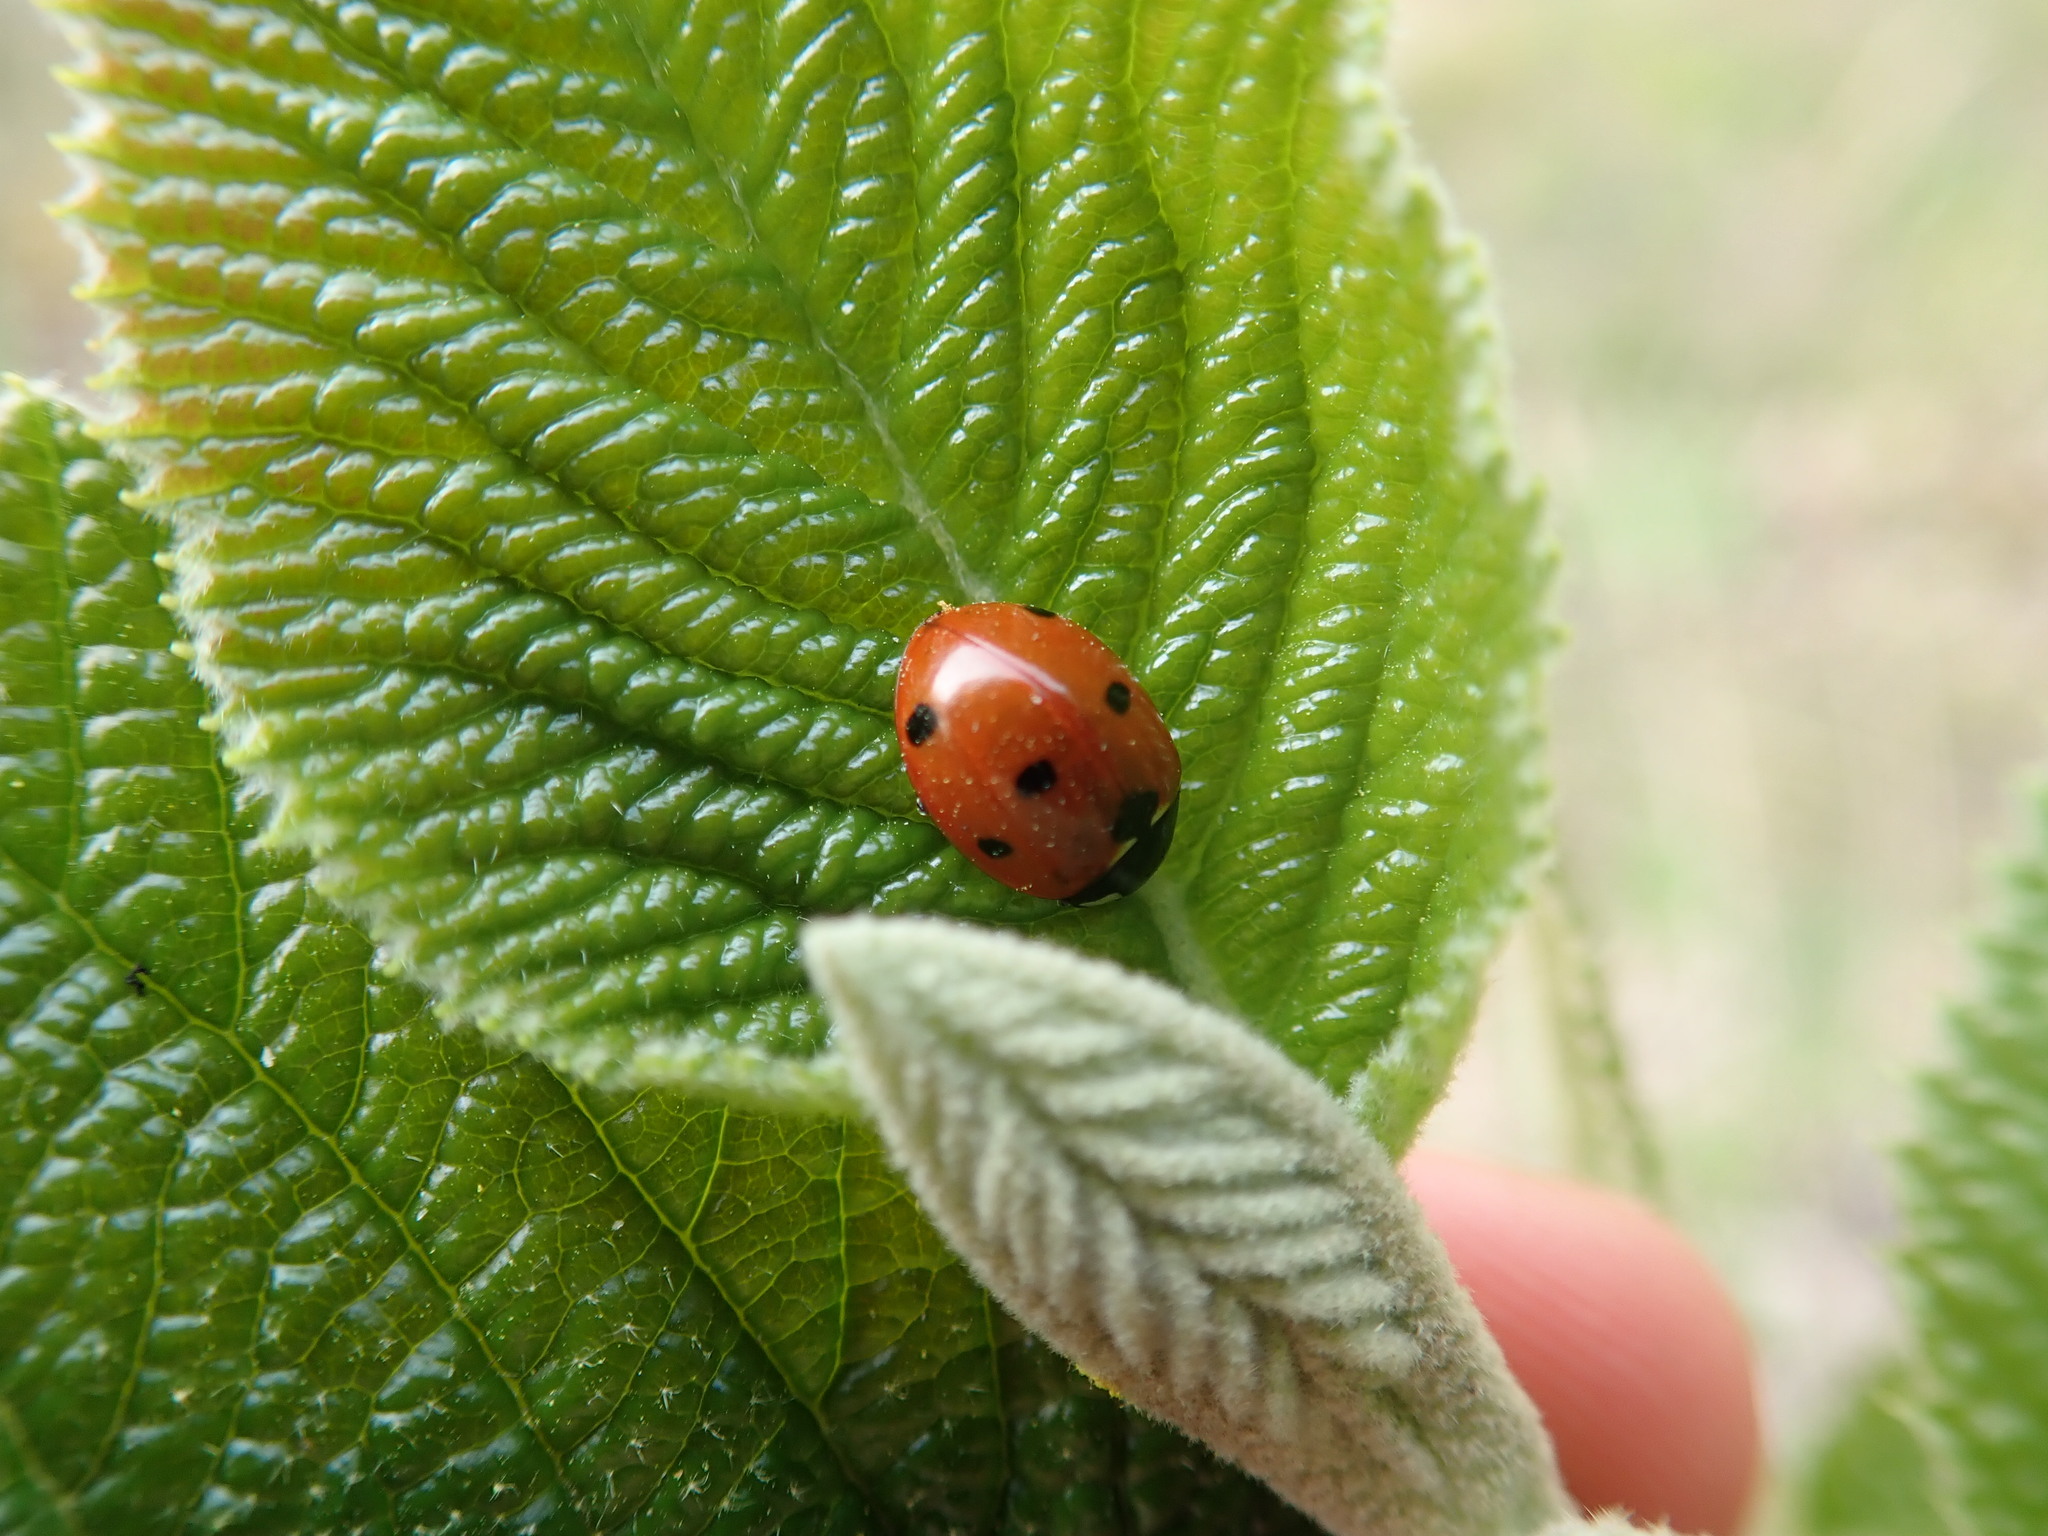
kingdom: Animalia
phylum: Arthropoda
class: Insecta
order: Coleoptera
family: Coccinellidae
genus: Coccinella
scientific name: Coccinella septempunctata
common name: Sevenspotted lady beetle
